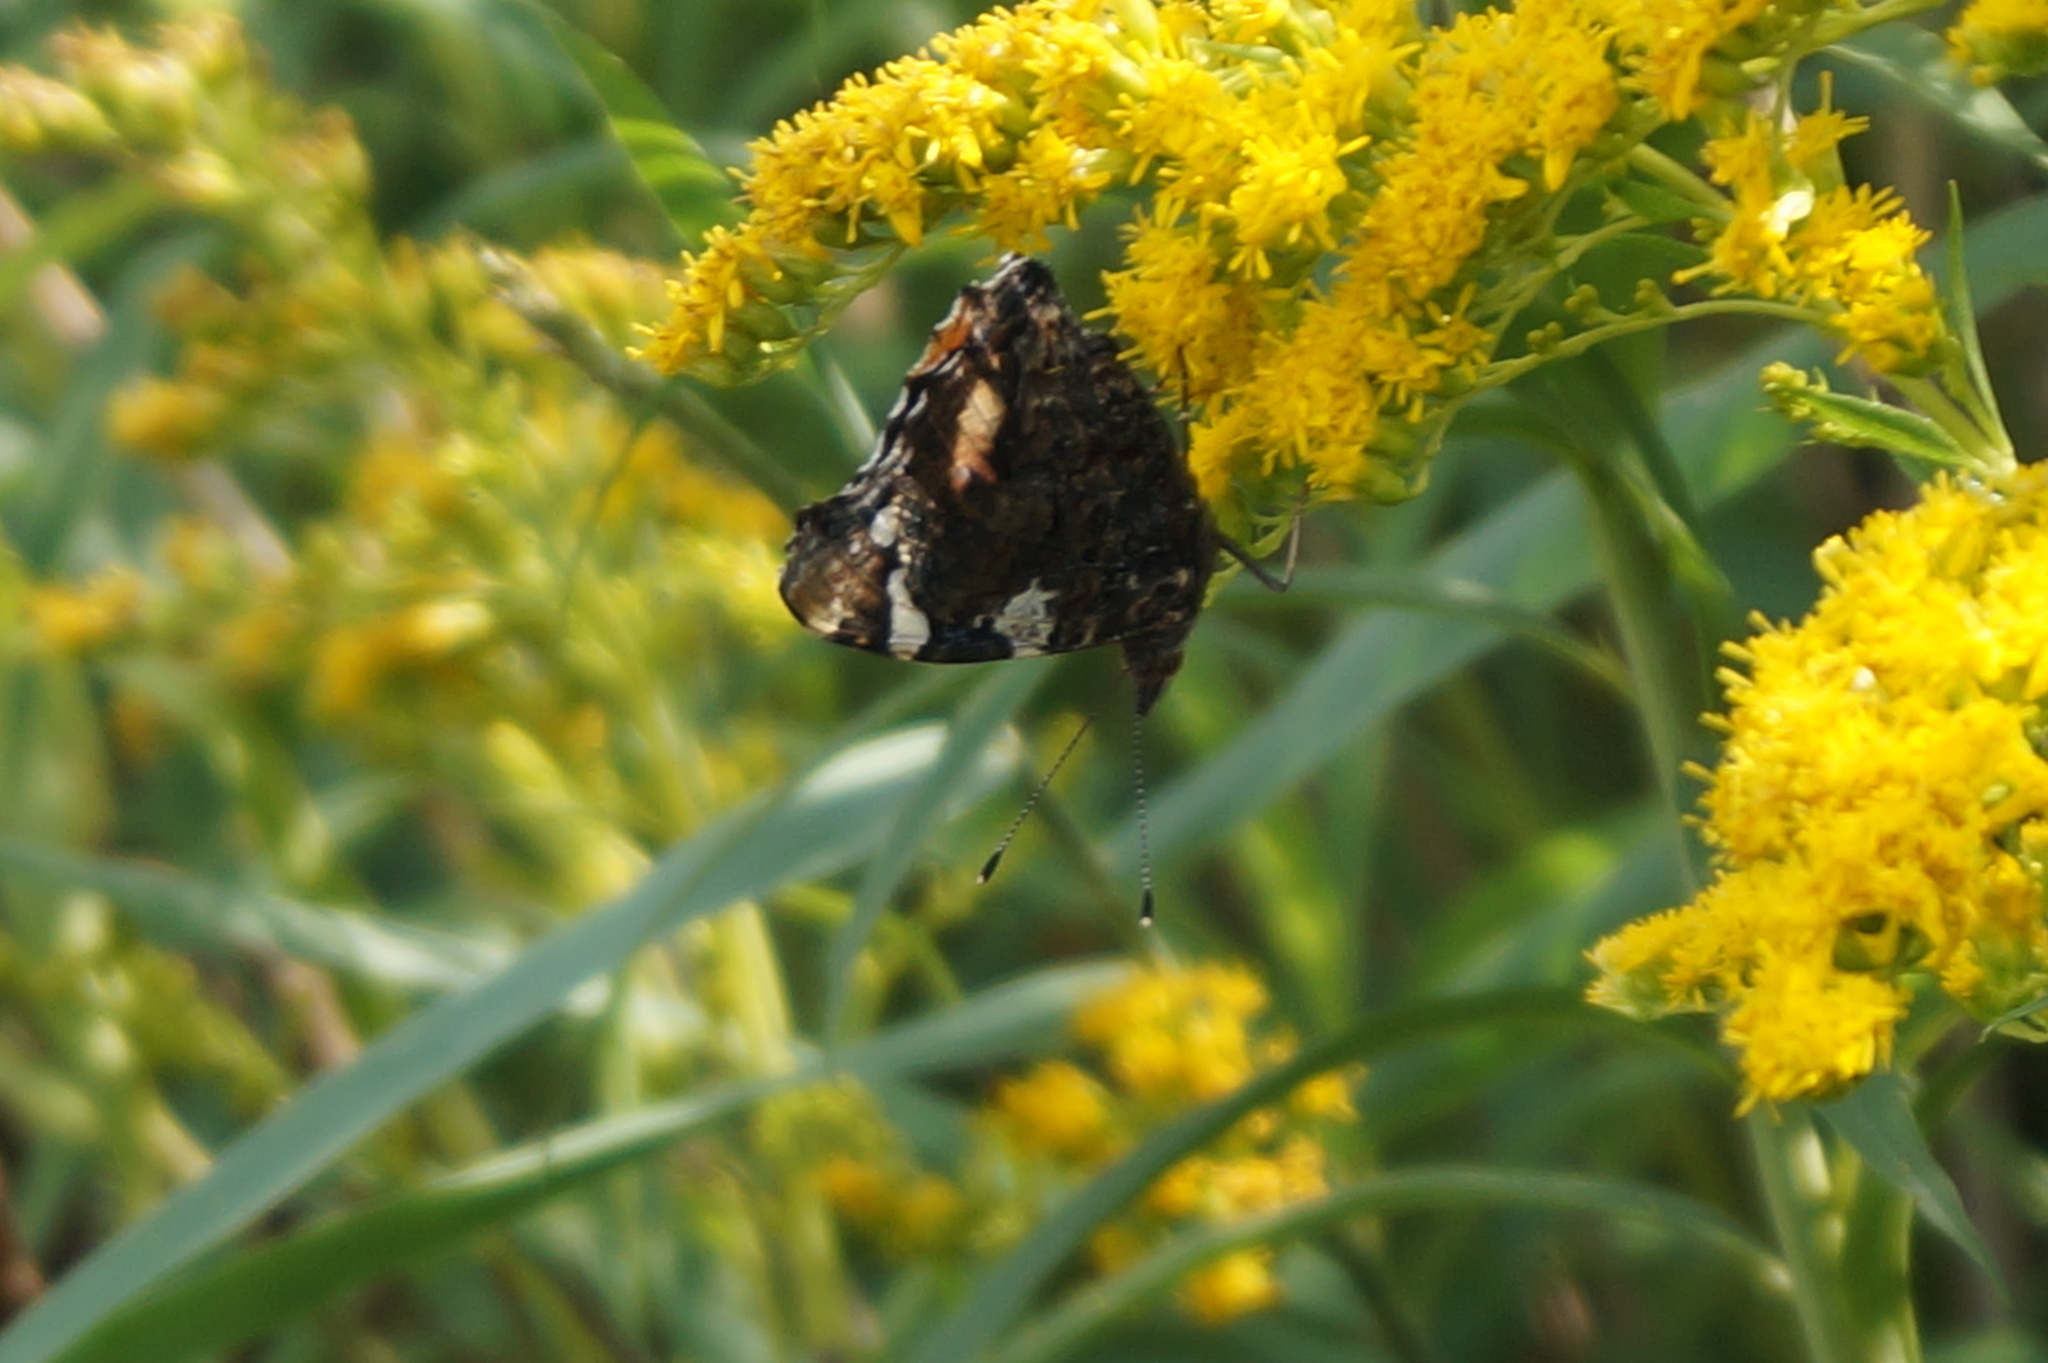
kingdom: Animalia
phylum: Arthropoda
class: Insecta
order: Lepidoptera
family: Nymphalidae
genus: Vanessa
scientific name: Vanessa atalanta
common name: Red admiral
